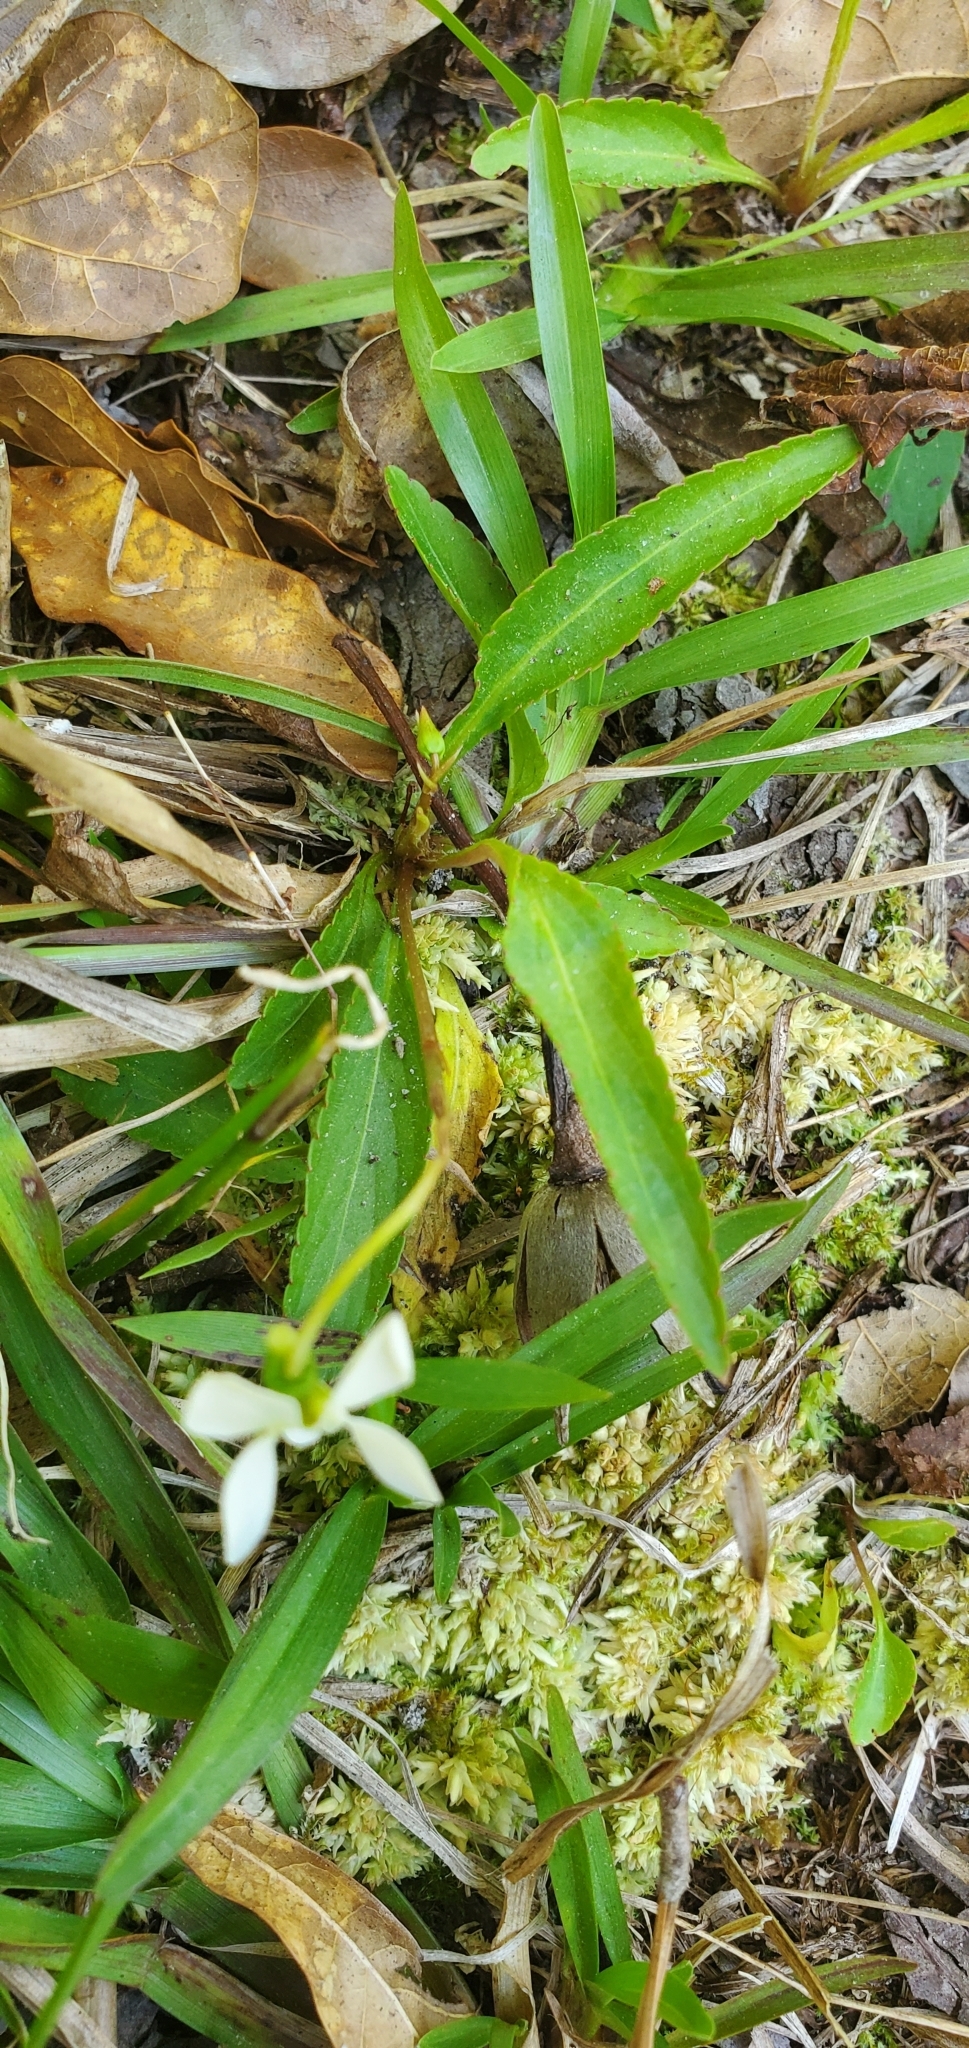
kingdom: Plantae
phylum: Tracheophyta
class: Magnoliopsida
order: Malpighiales
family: Violaceae
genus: Viola
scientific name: Viola vittata
